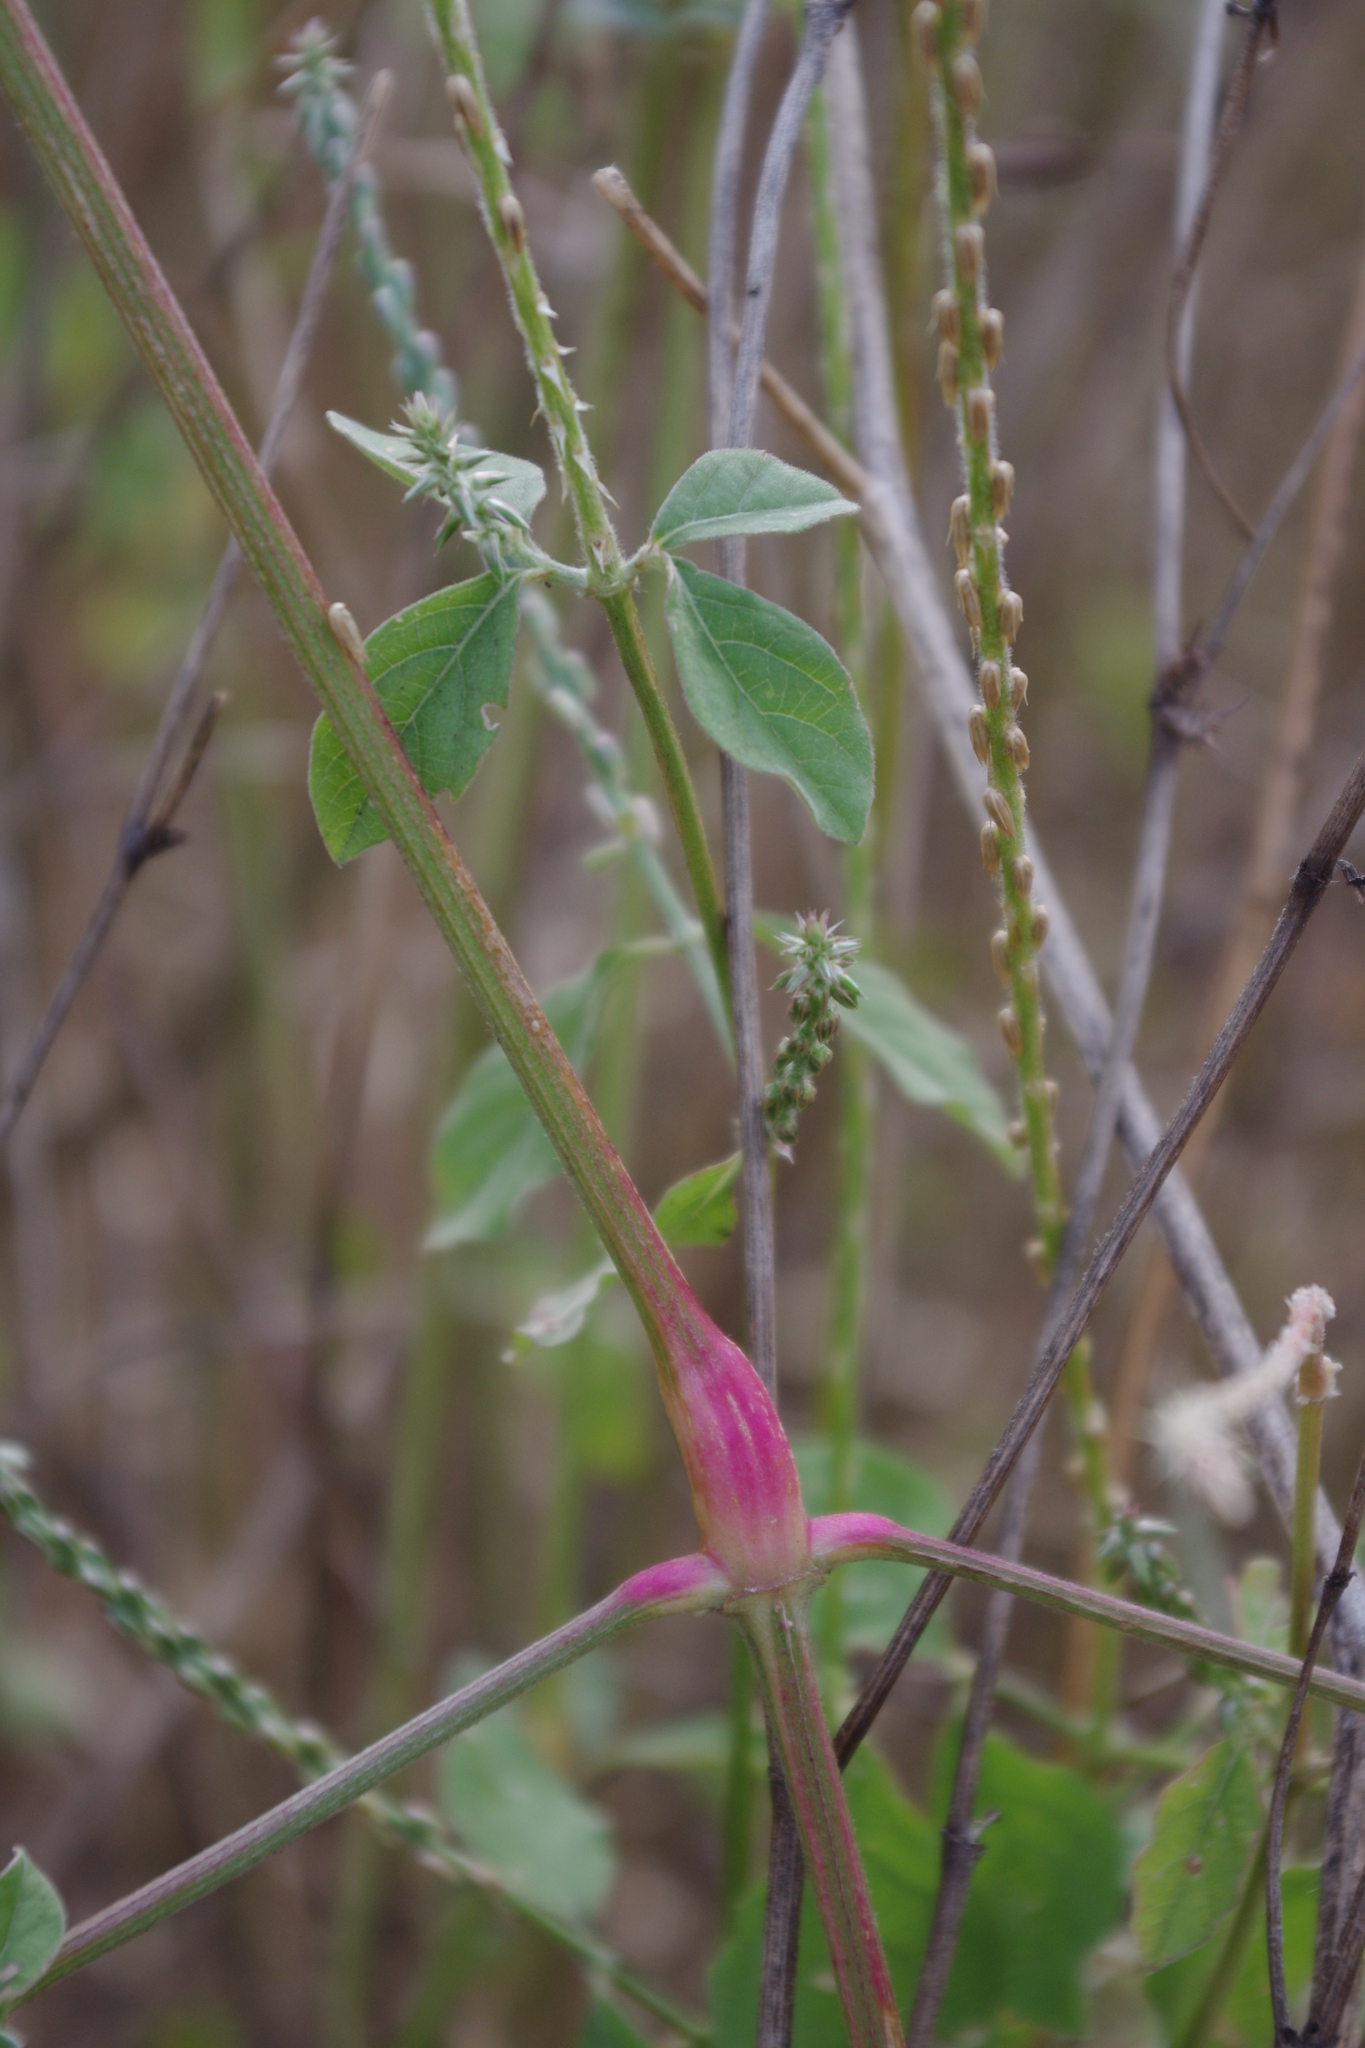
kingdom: Plantae
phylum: Tracheophyta
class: Magnoliopsida
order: Caryophyllales
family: Amaranthaceae
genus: Achyranthes
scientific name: Achyranthes aspera
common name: Devil's horsewhip
